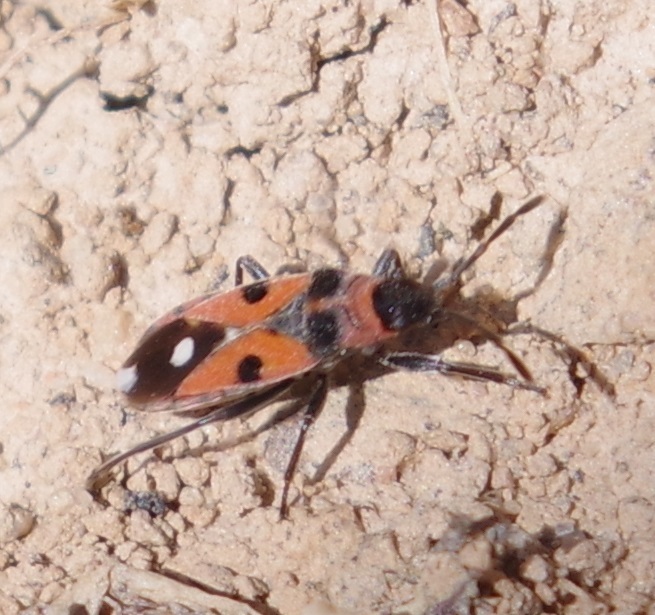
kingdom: Animalia
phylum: Arthropoda
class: Insecta
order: Hemiptera
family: Lygaeidae
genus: Horvathiolus
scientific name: Horvathiolus superbus
